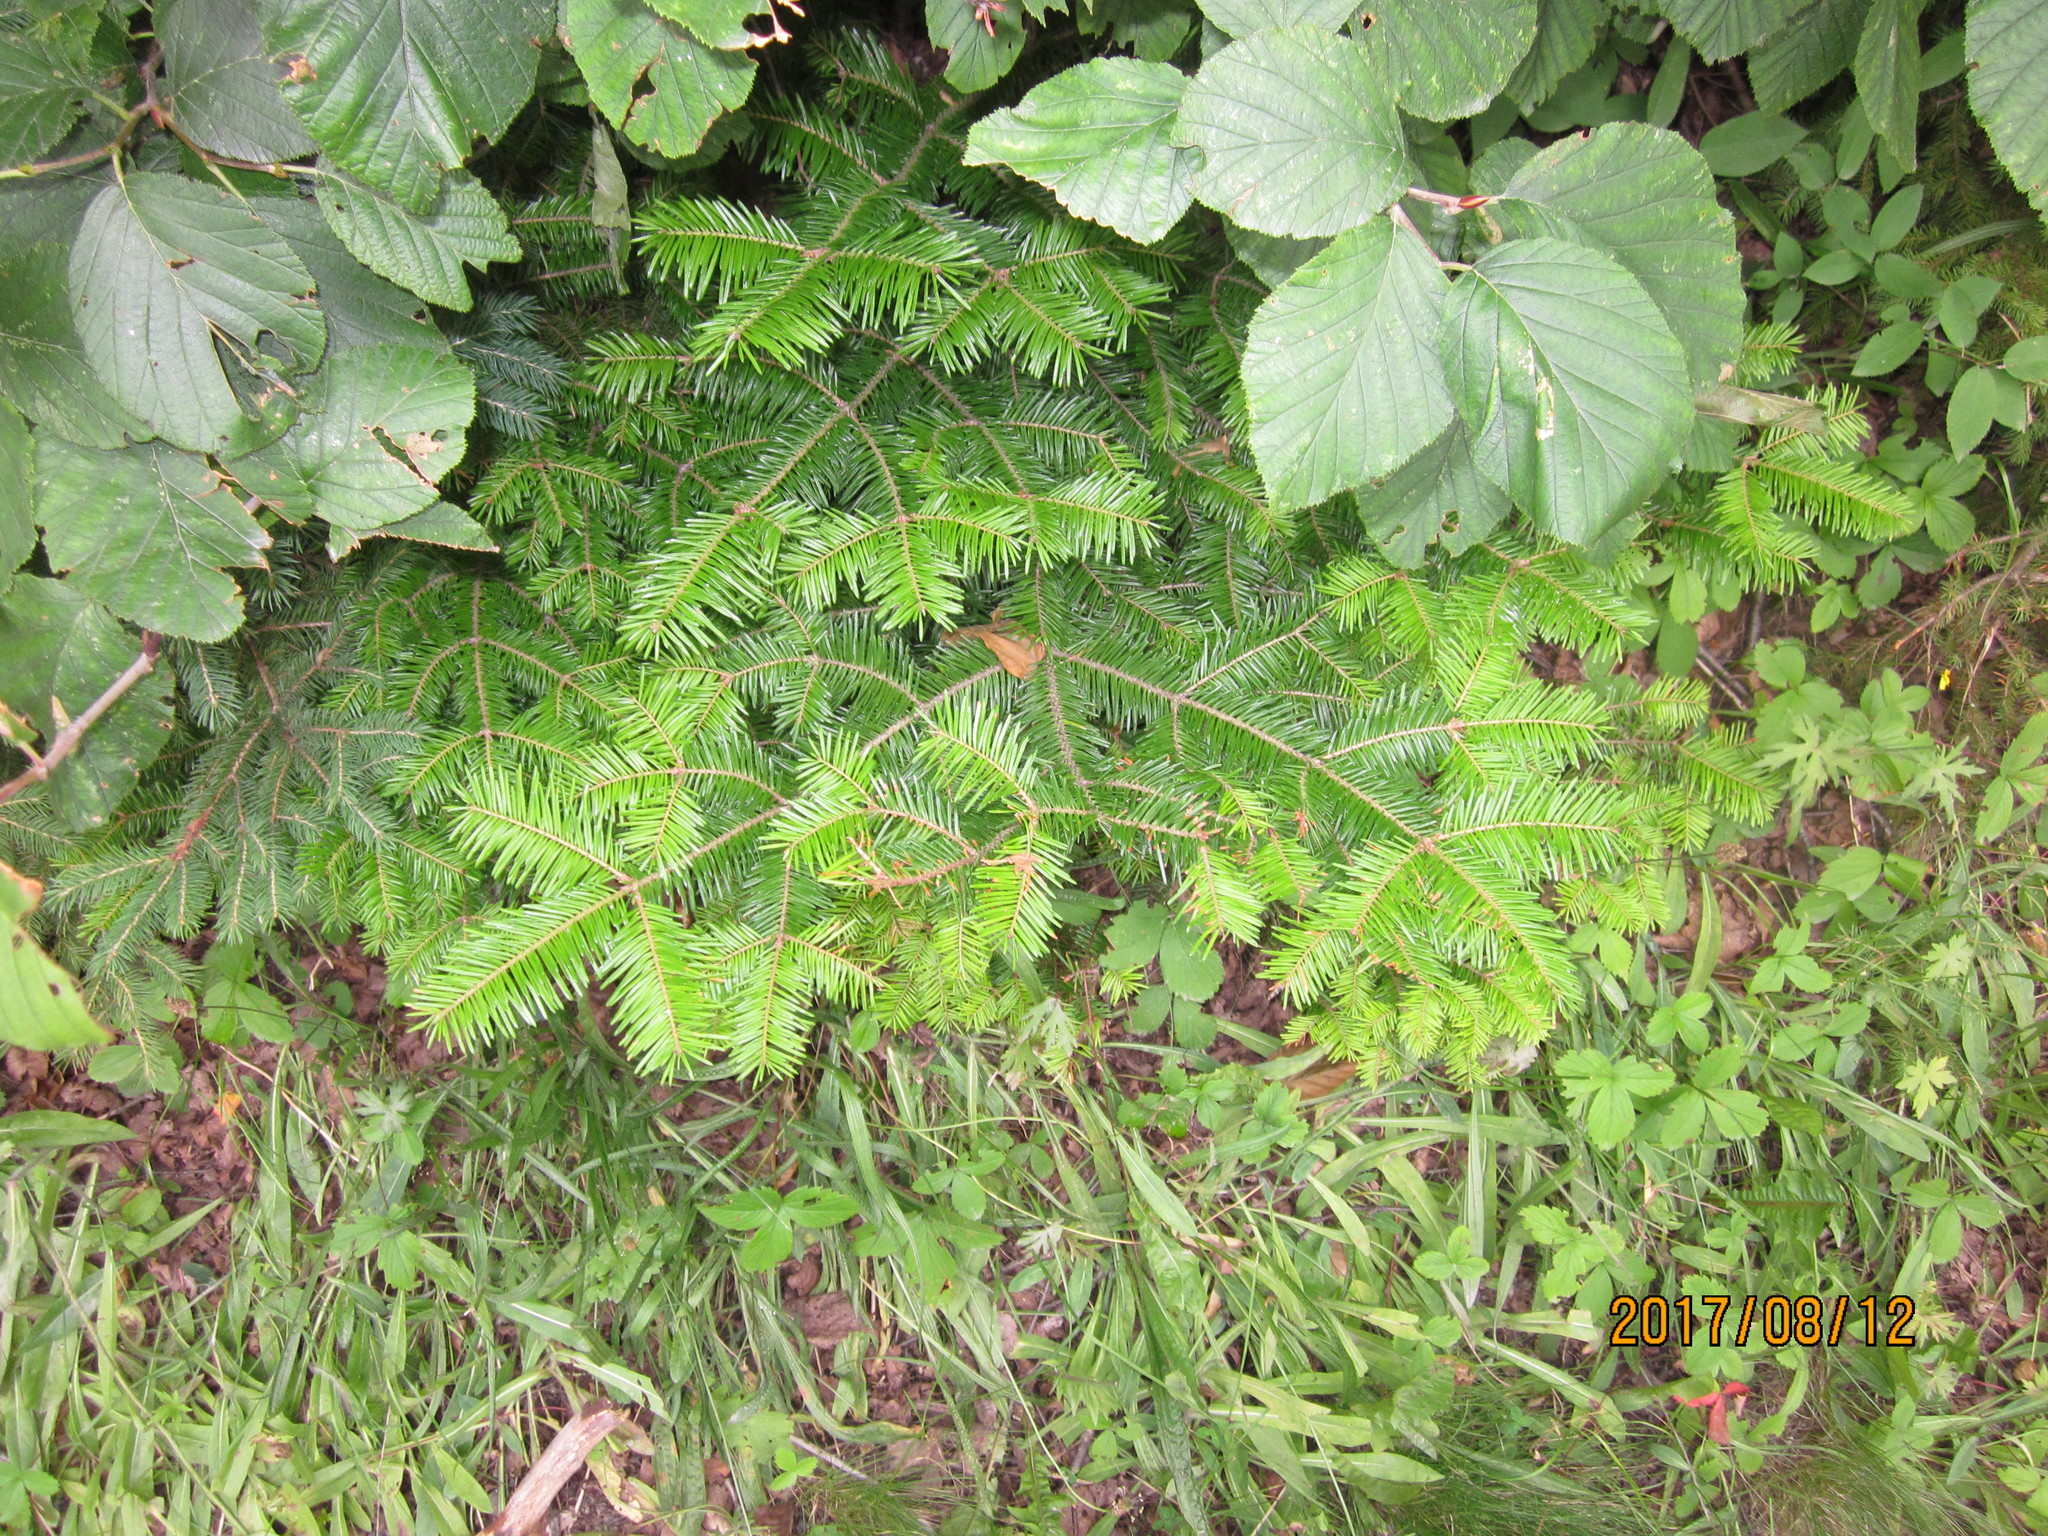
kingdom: Plantae
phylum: Tracheophyta
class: Pinopsida
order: Pinales
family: Pinaceae
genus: Abies
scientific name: Abies balsamea
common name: Balsam fir
